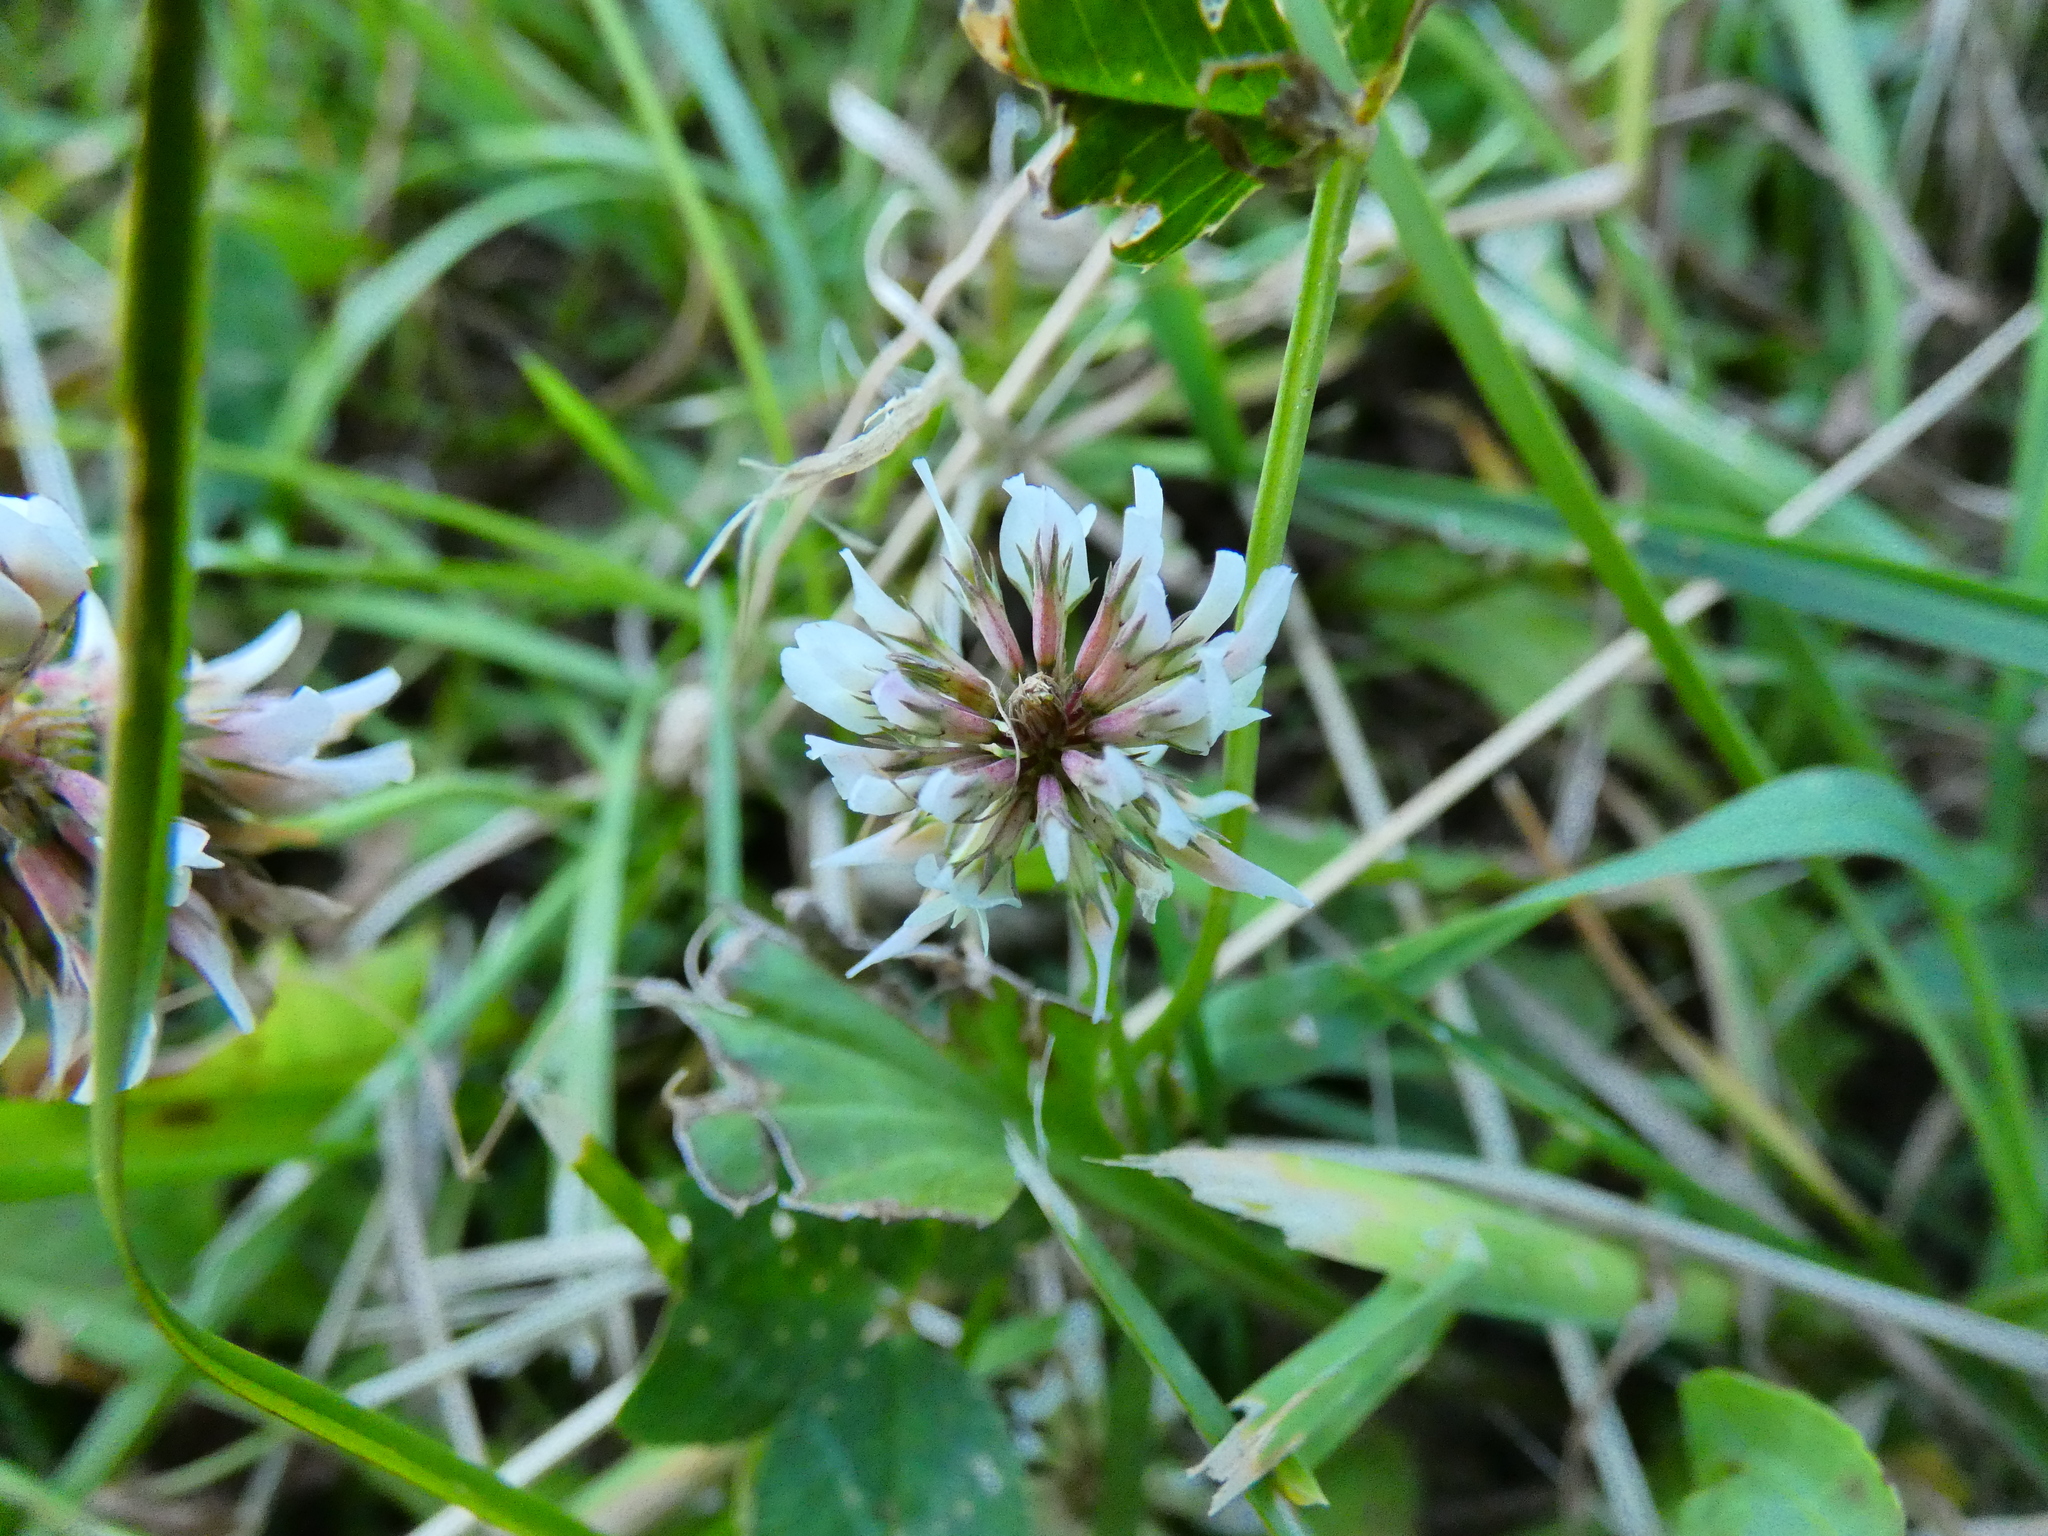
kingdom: Plantae
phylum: Tracheophyta
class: Magnoliopsida
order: Fabales
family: Fabaceae
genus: Trifolium
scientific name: Trifolium repens
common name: White clover
